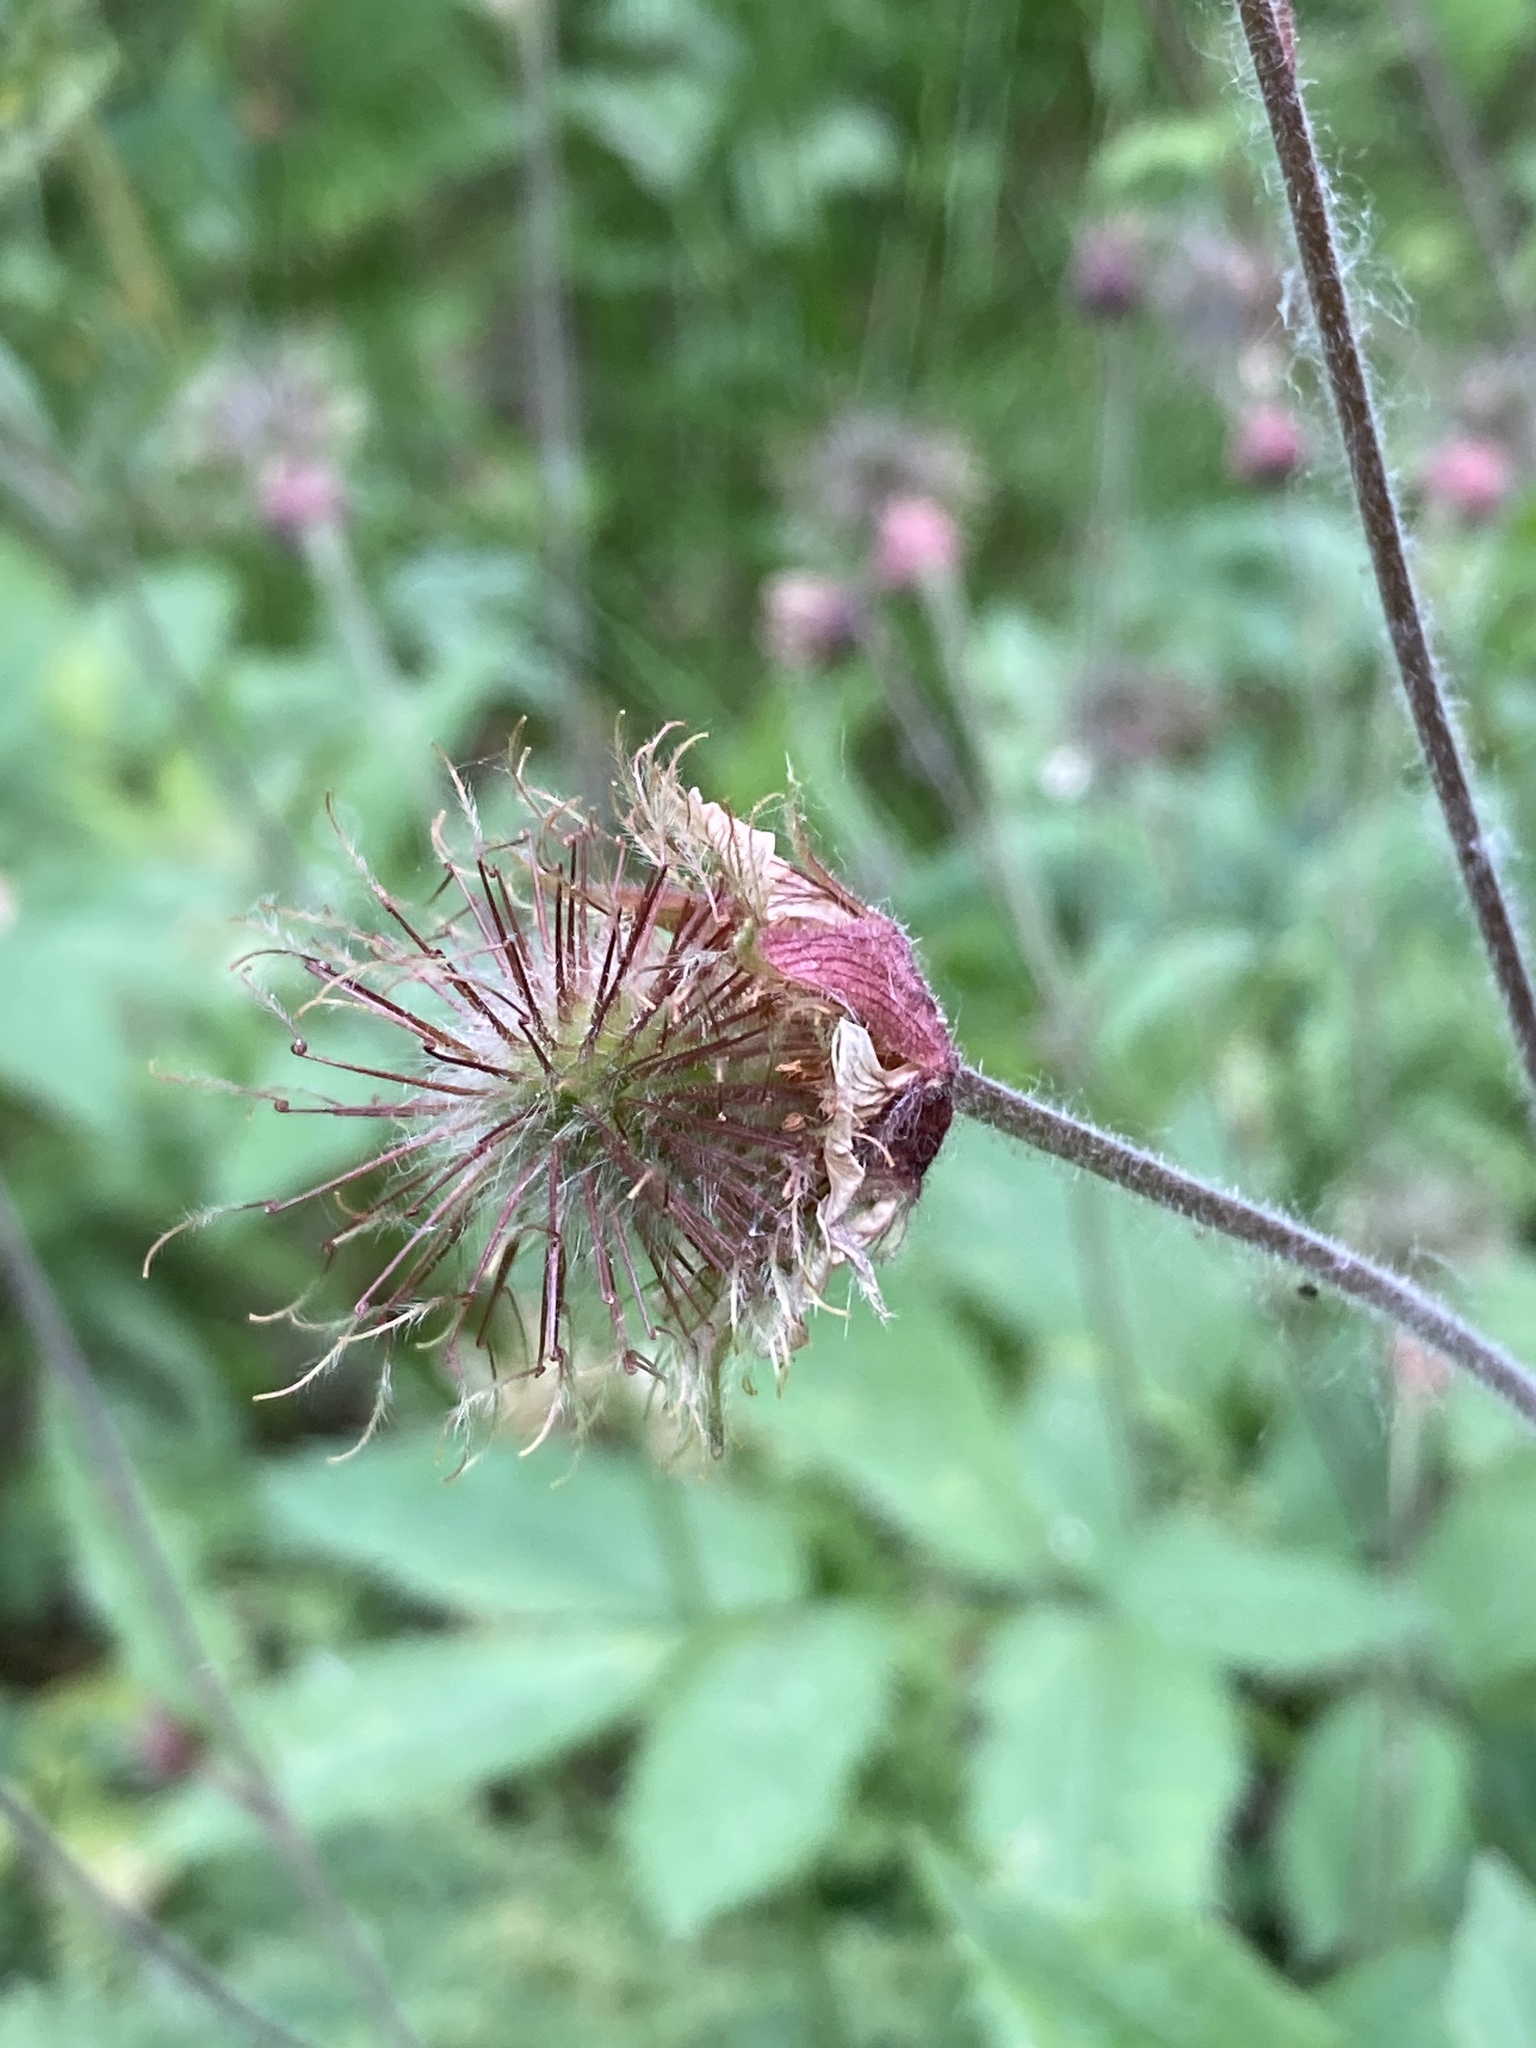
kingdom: Plantae
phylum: Tracheophyta
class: Magnoliopsida
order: Rosales
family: Rosaceae
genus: Geum
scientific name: Geum rivale
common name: Water avens
